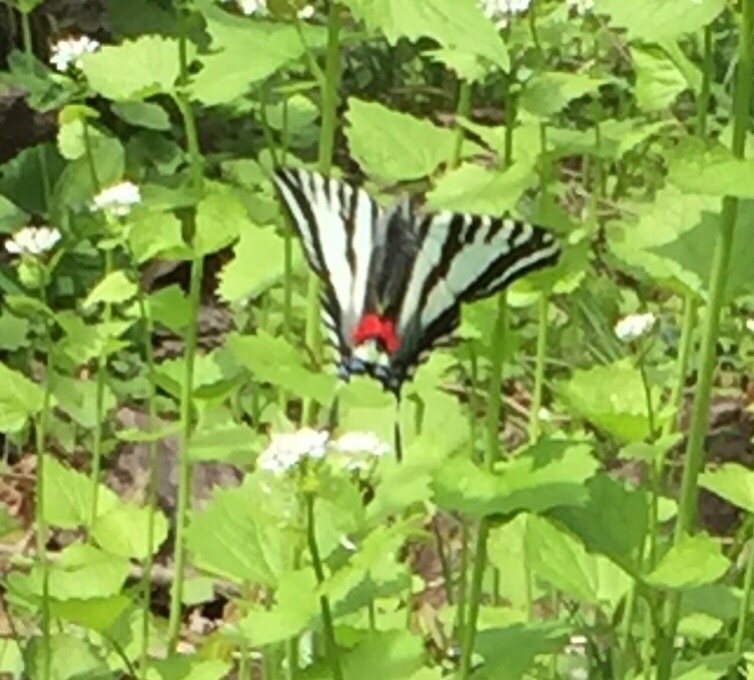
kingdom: Animalia
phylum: Arthropoda
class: Insecta
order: Lepidoptera
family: Papilionidae
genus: Protographium
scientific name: Protographium marcellus
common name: Zebra swallowtail
